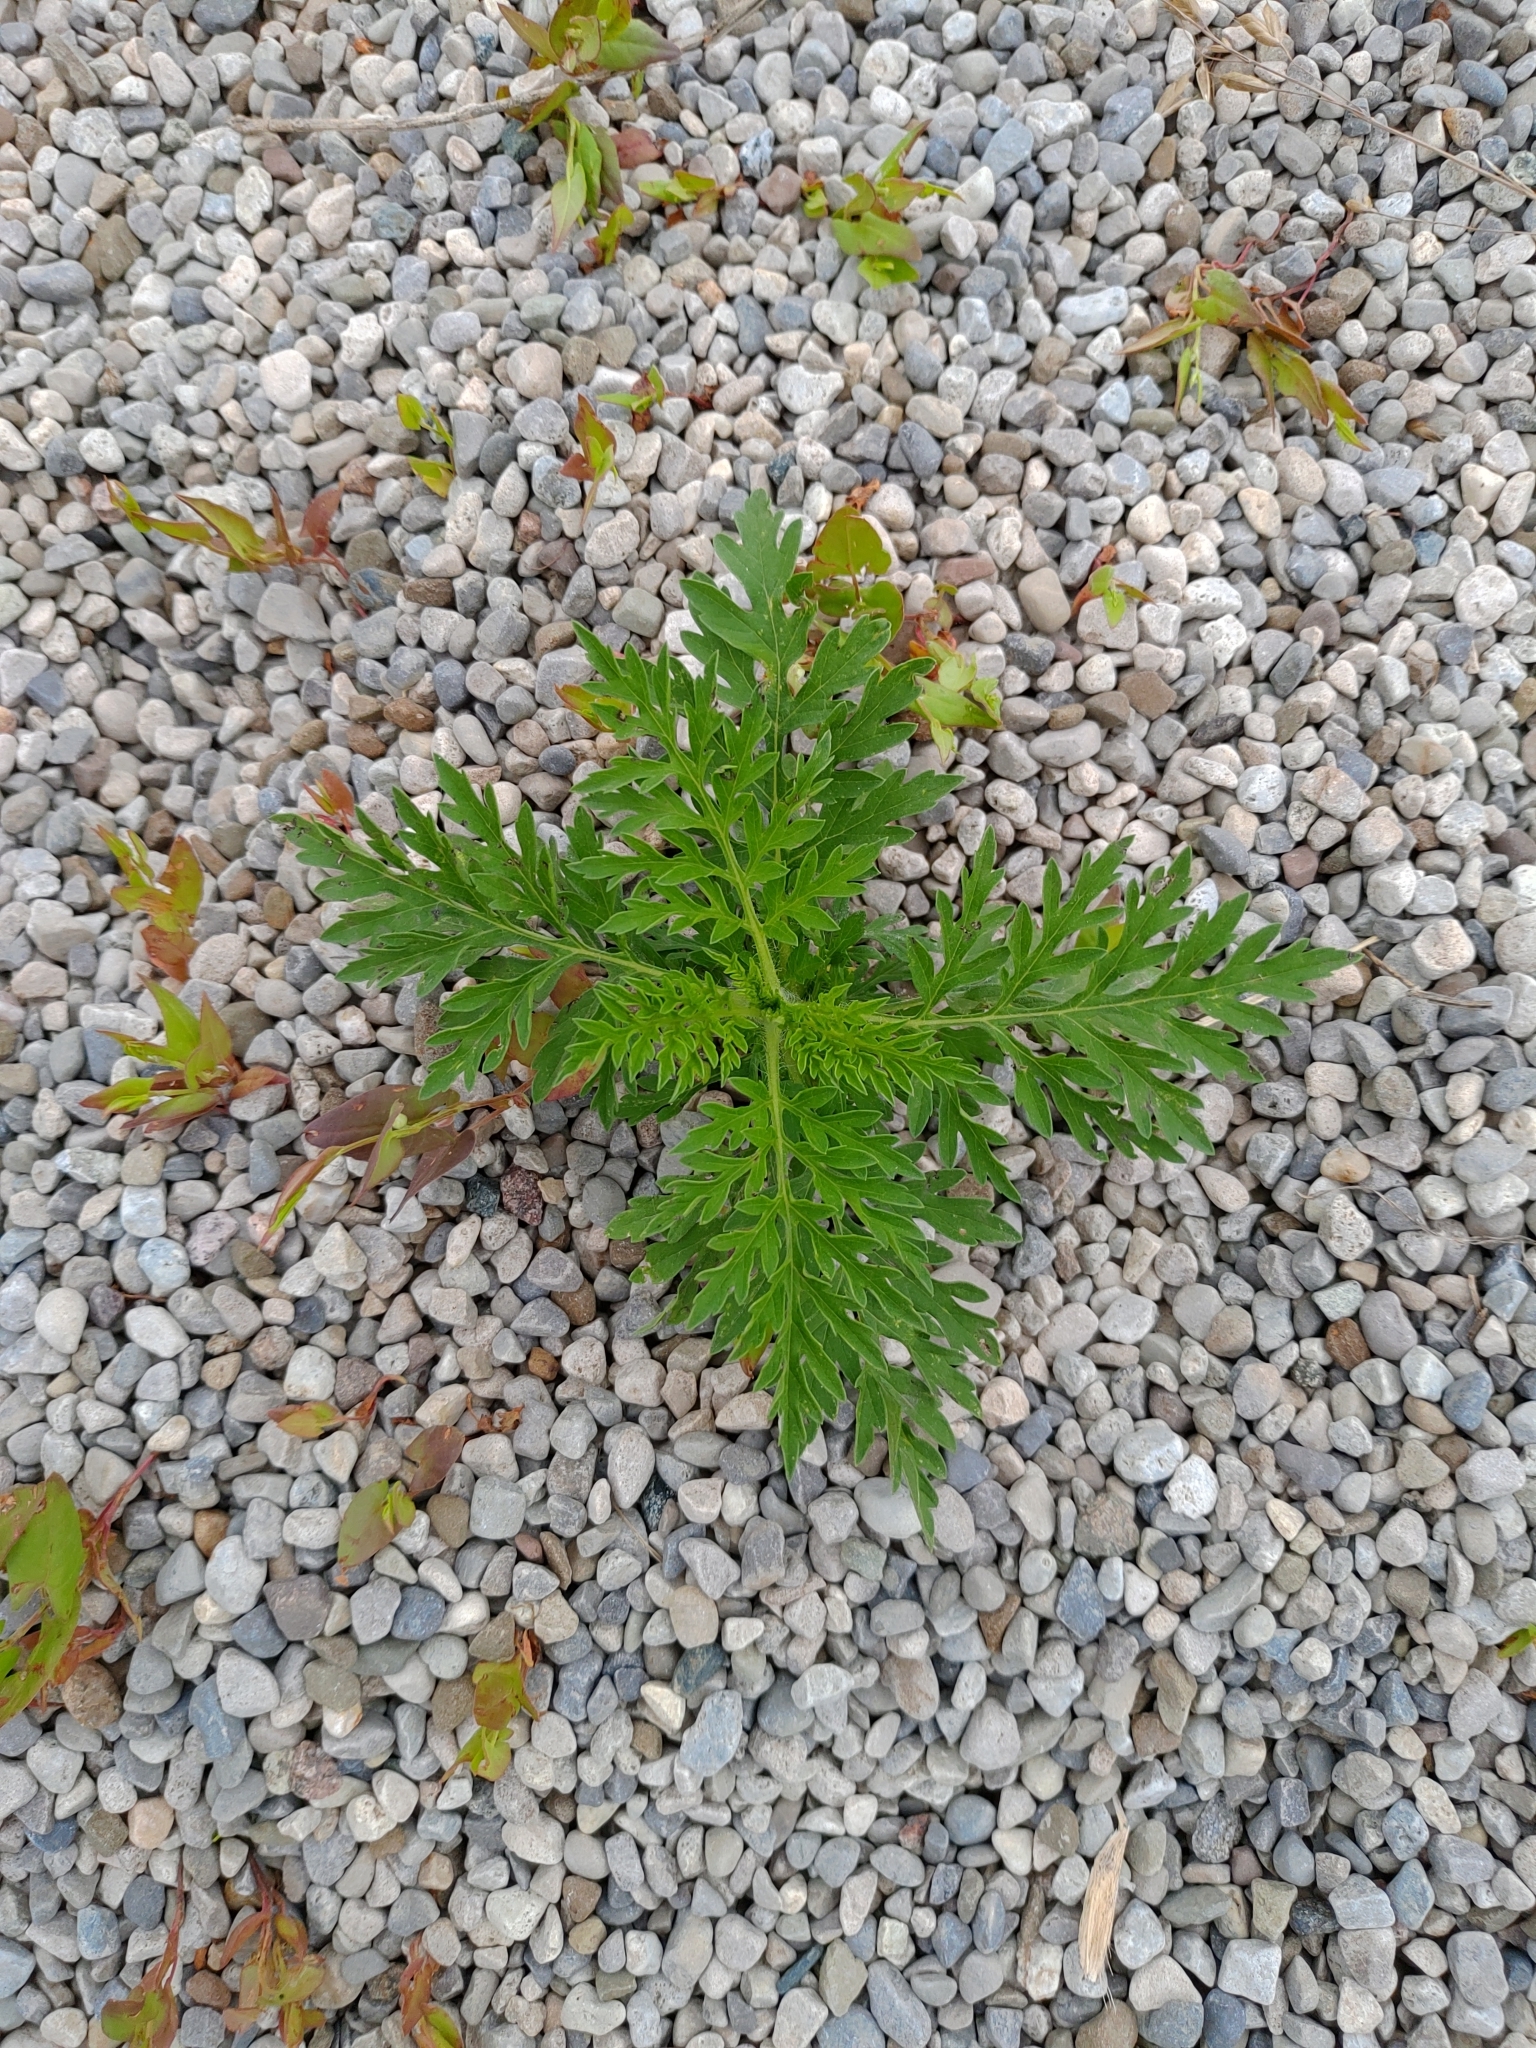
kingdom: Plantae
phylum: Tracheophyta
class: Magnoliopsida
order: Asterales
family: Asteraceae
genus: Ambrosia
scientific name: Ambrosia artemisiifolia
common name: Annual ragweed
